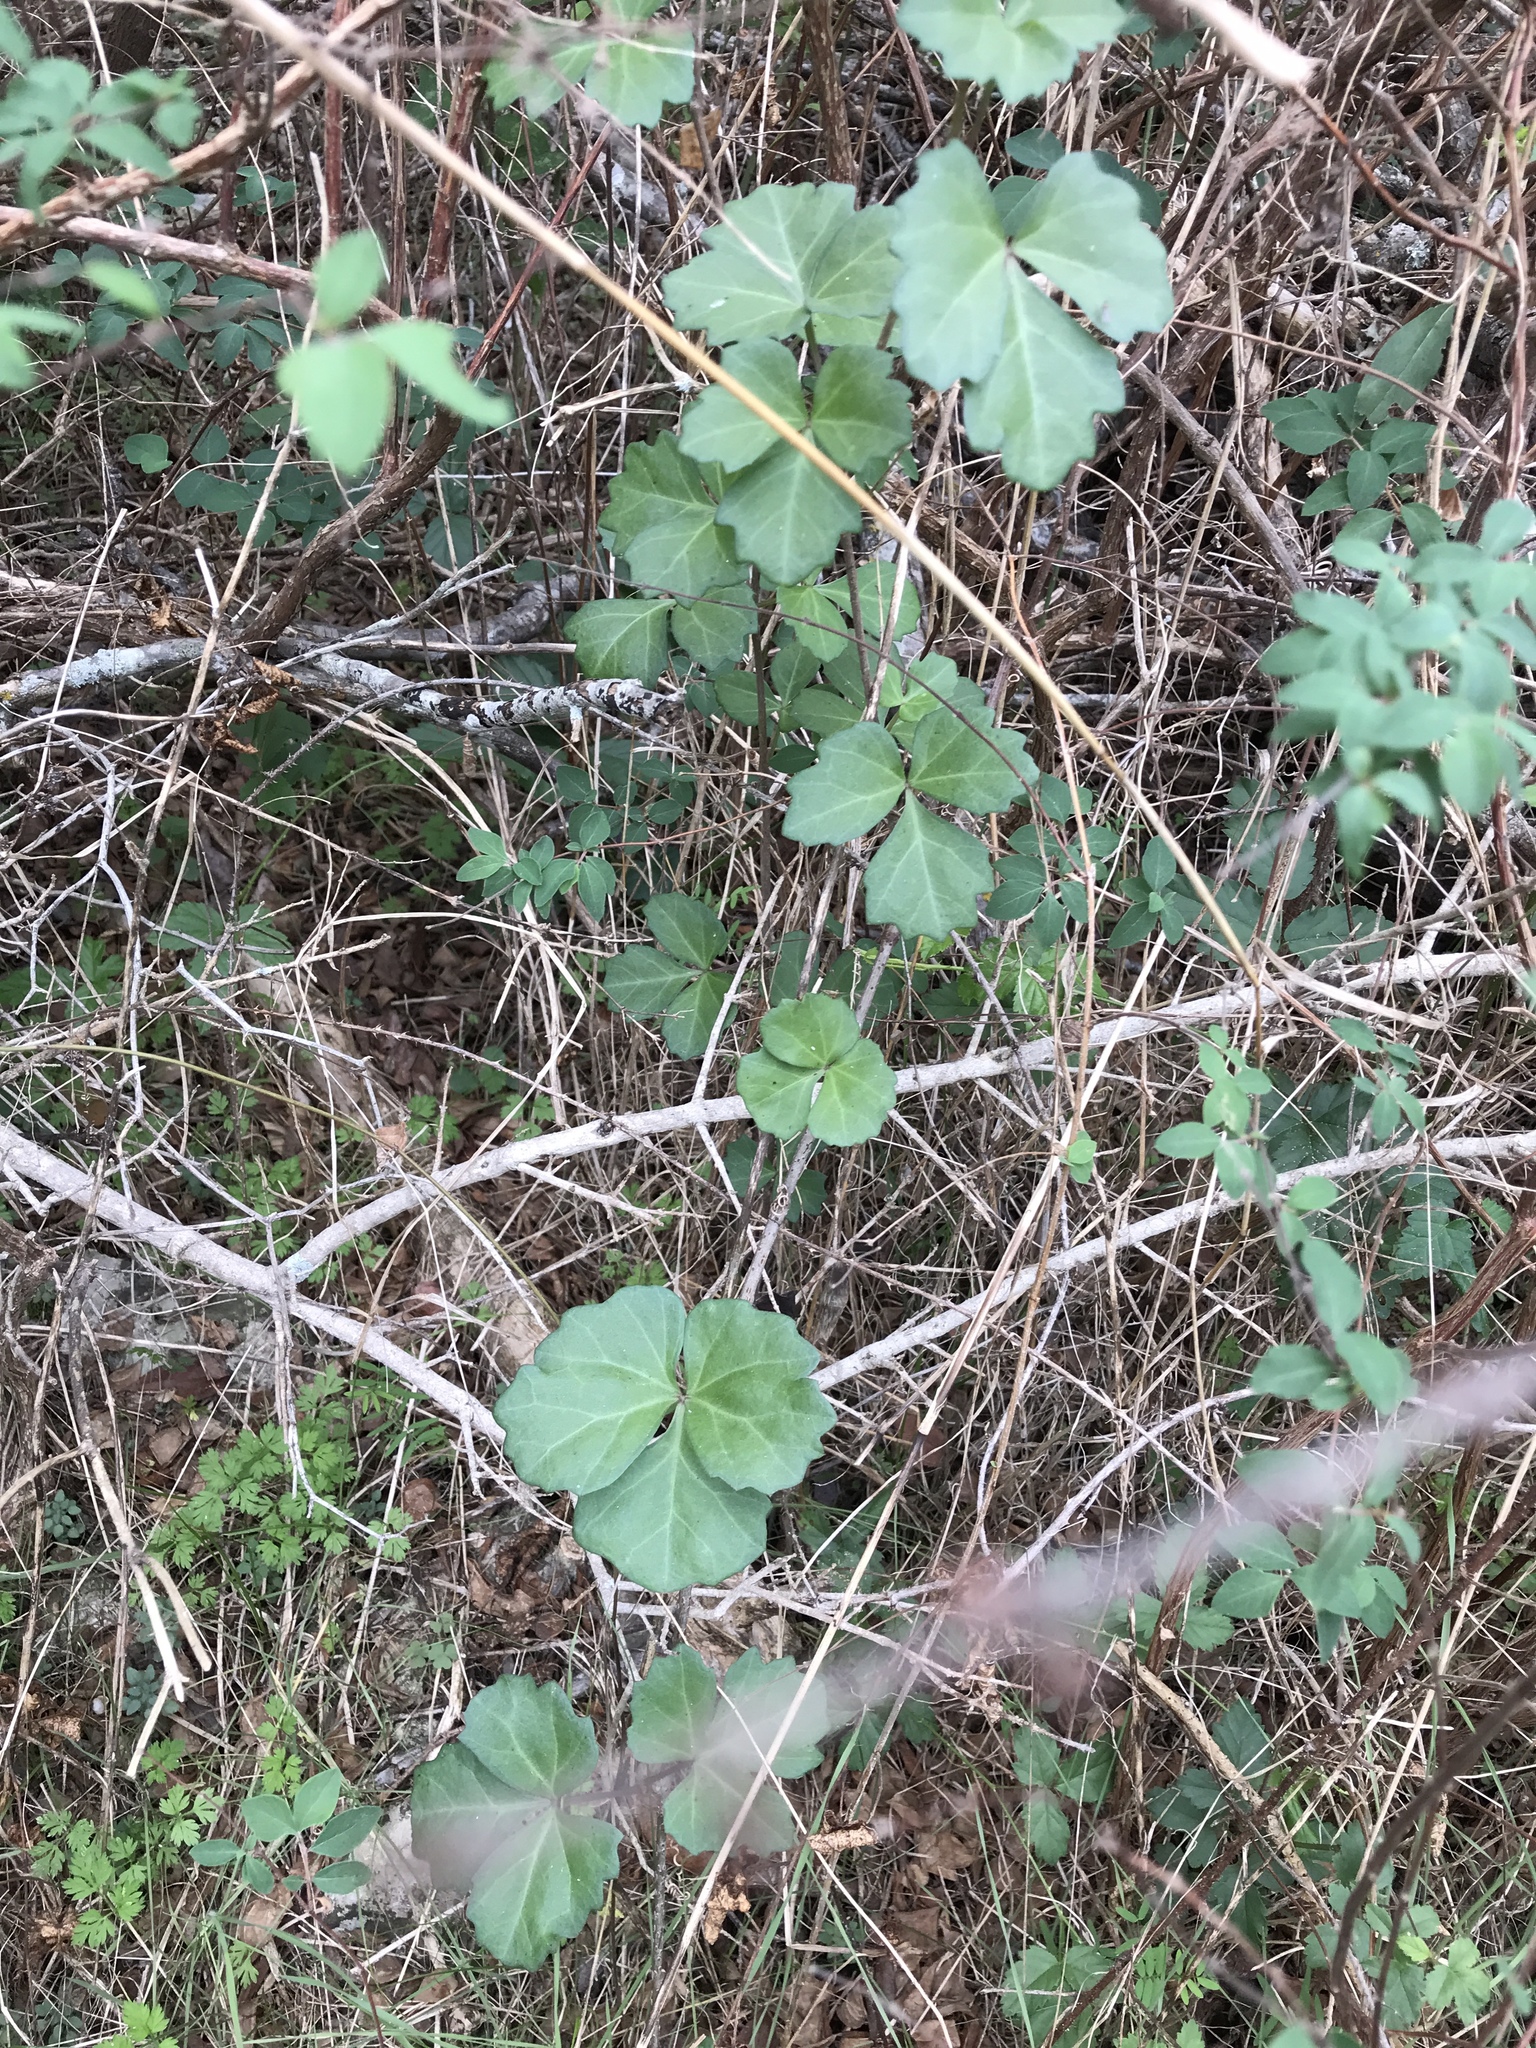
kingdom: Plantae
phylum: Tracheophyta
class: Magnoliopsida
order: Vitales
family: Vitaceae
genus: Cissus
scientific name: Cissus trifoliata
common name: Vine-sorrel
